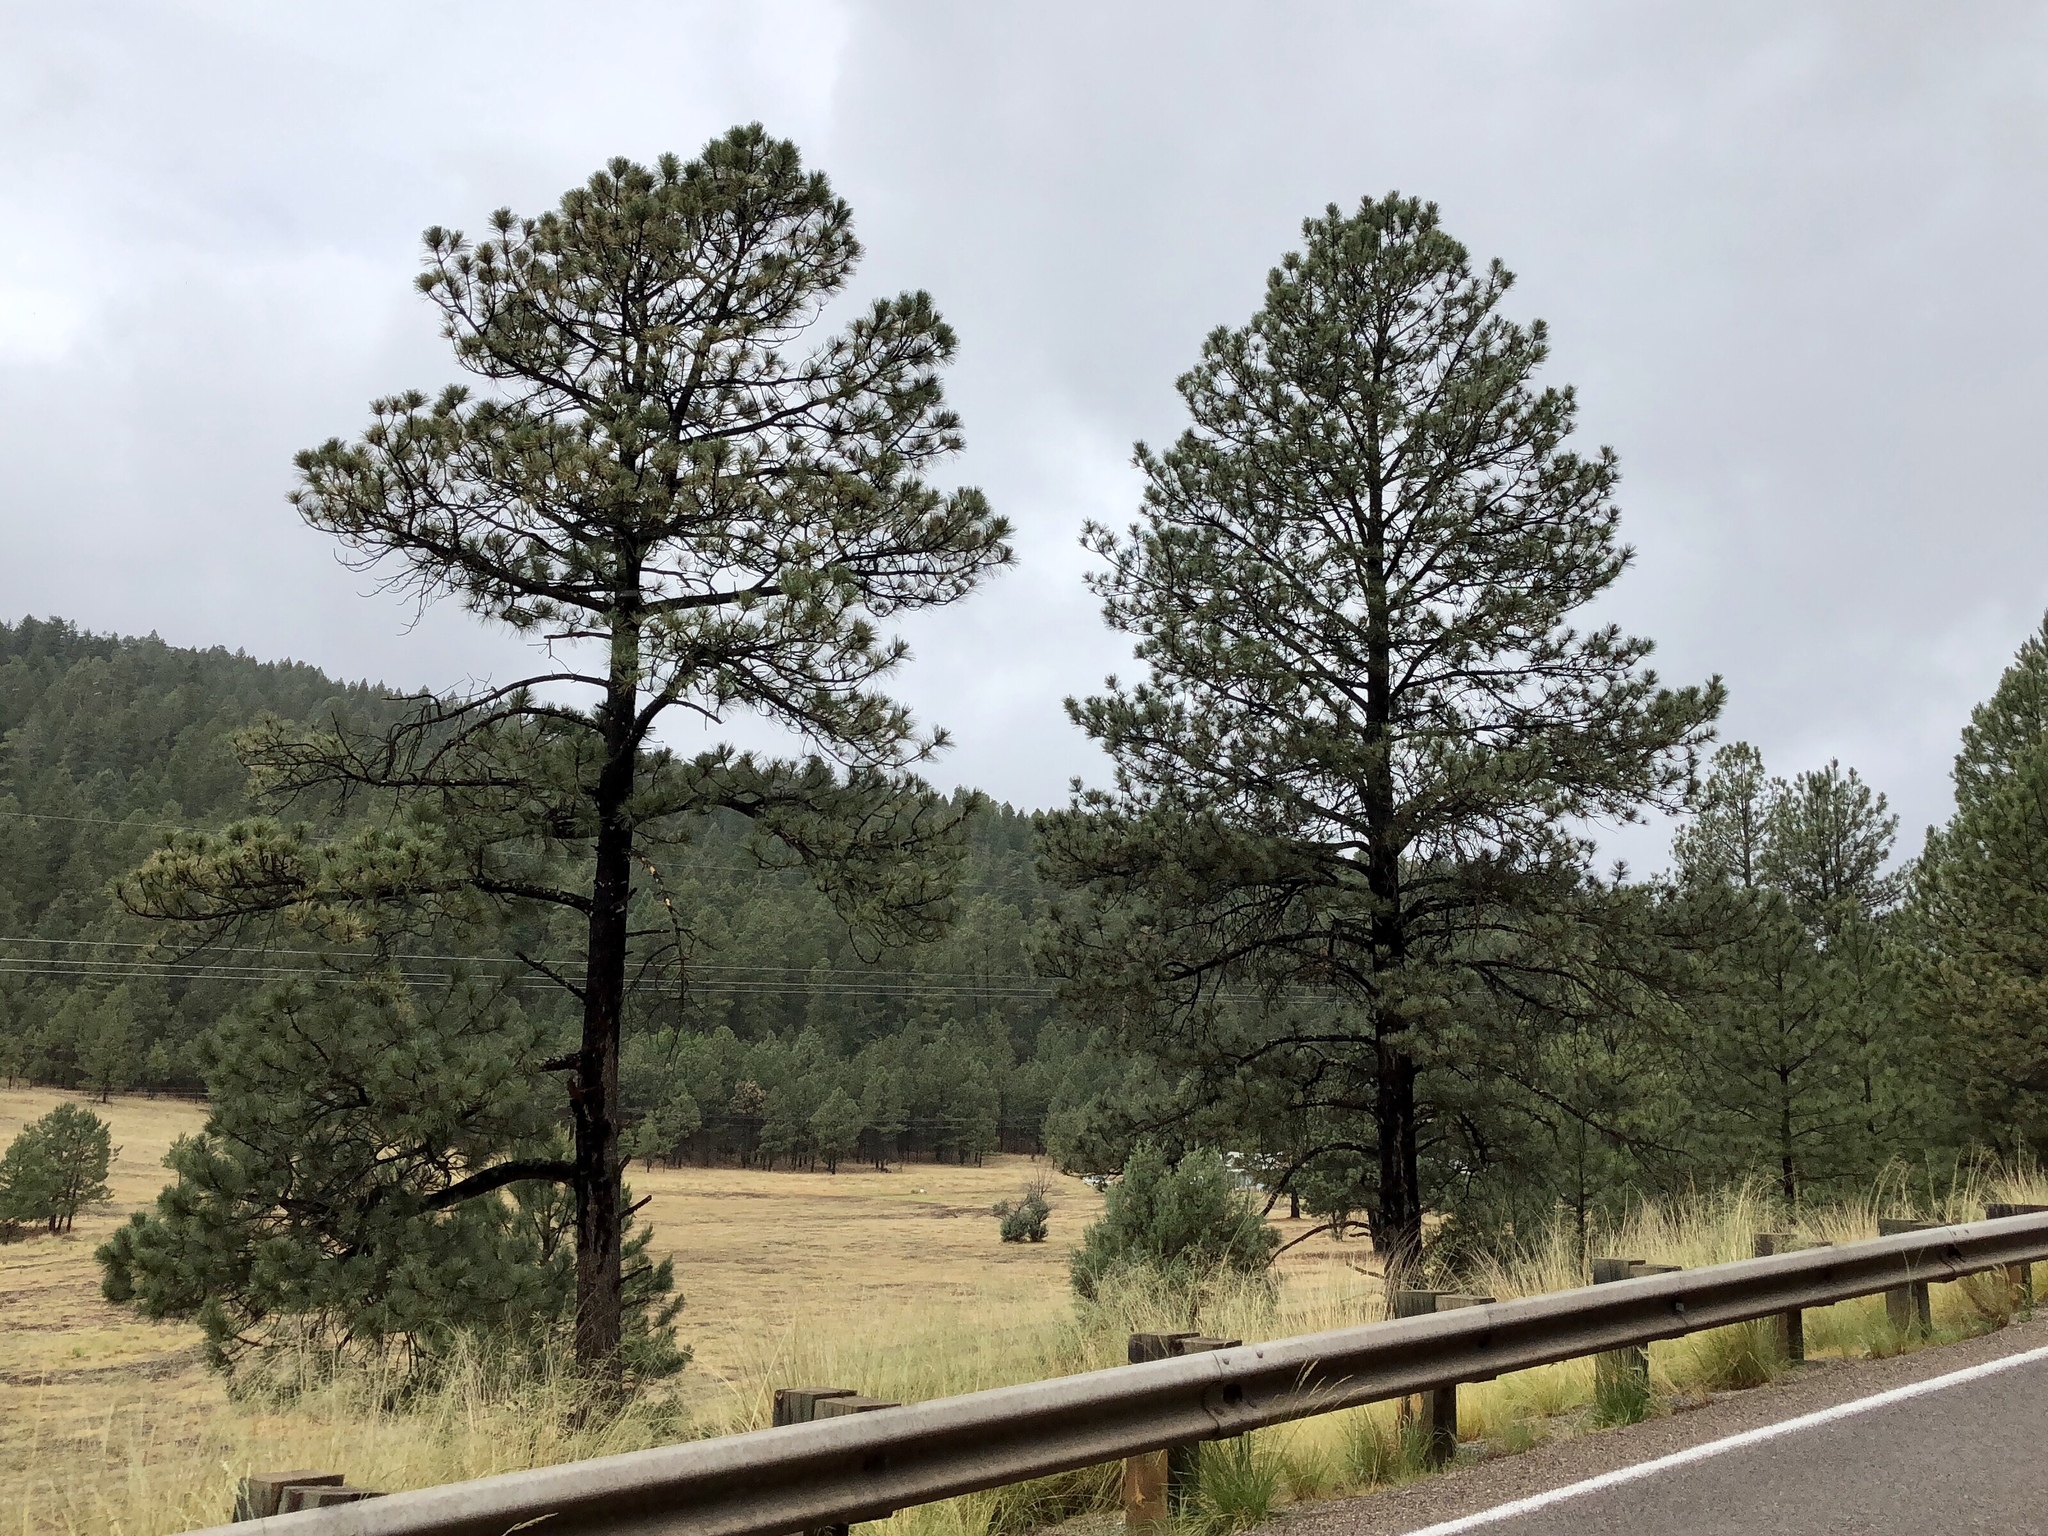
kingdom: Plantae
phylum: Tracheophyta
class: Pinopsida
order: Pinales
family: Pinaceae
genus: Pinus
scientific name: Pinus ponderosa
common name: Western yellow-pine
